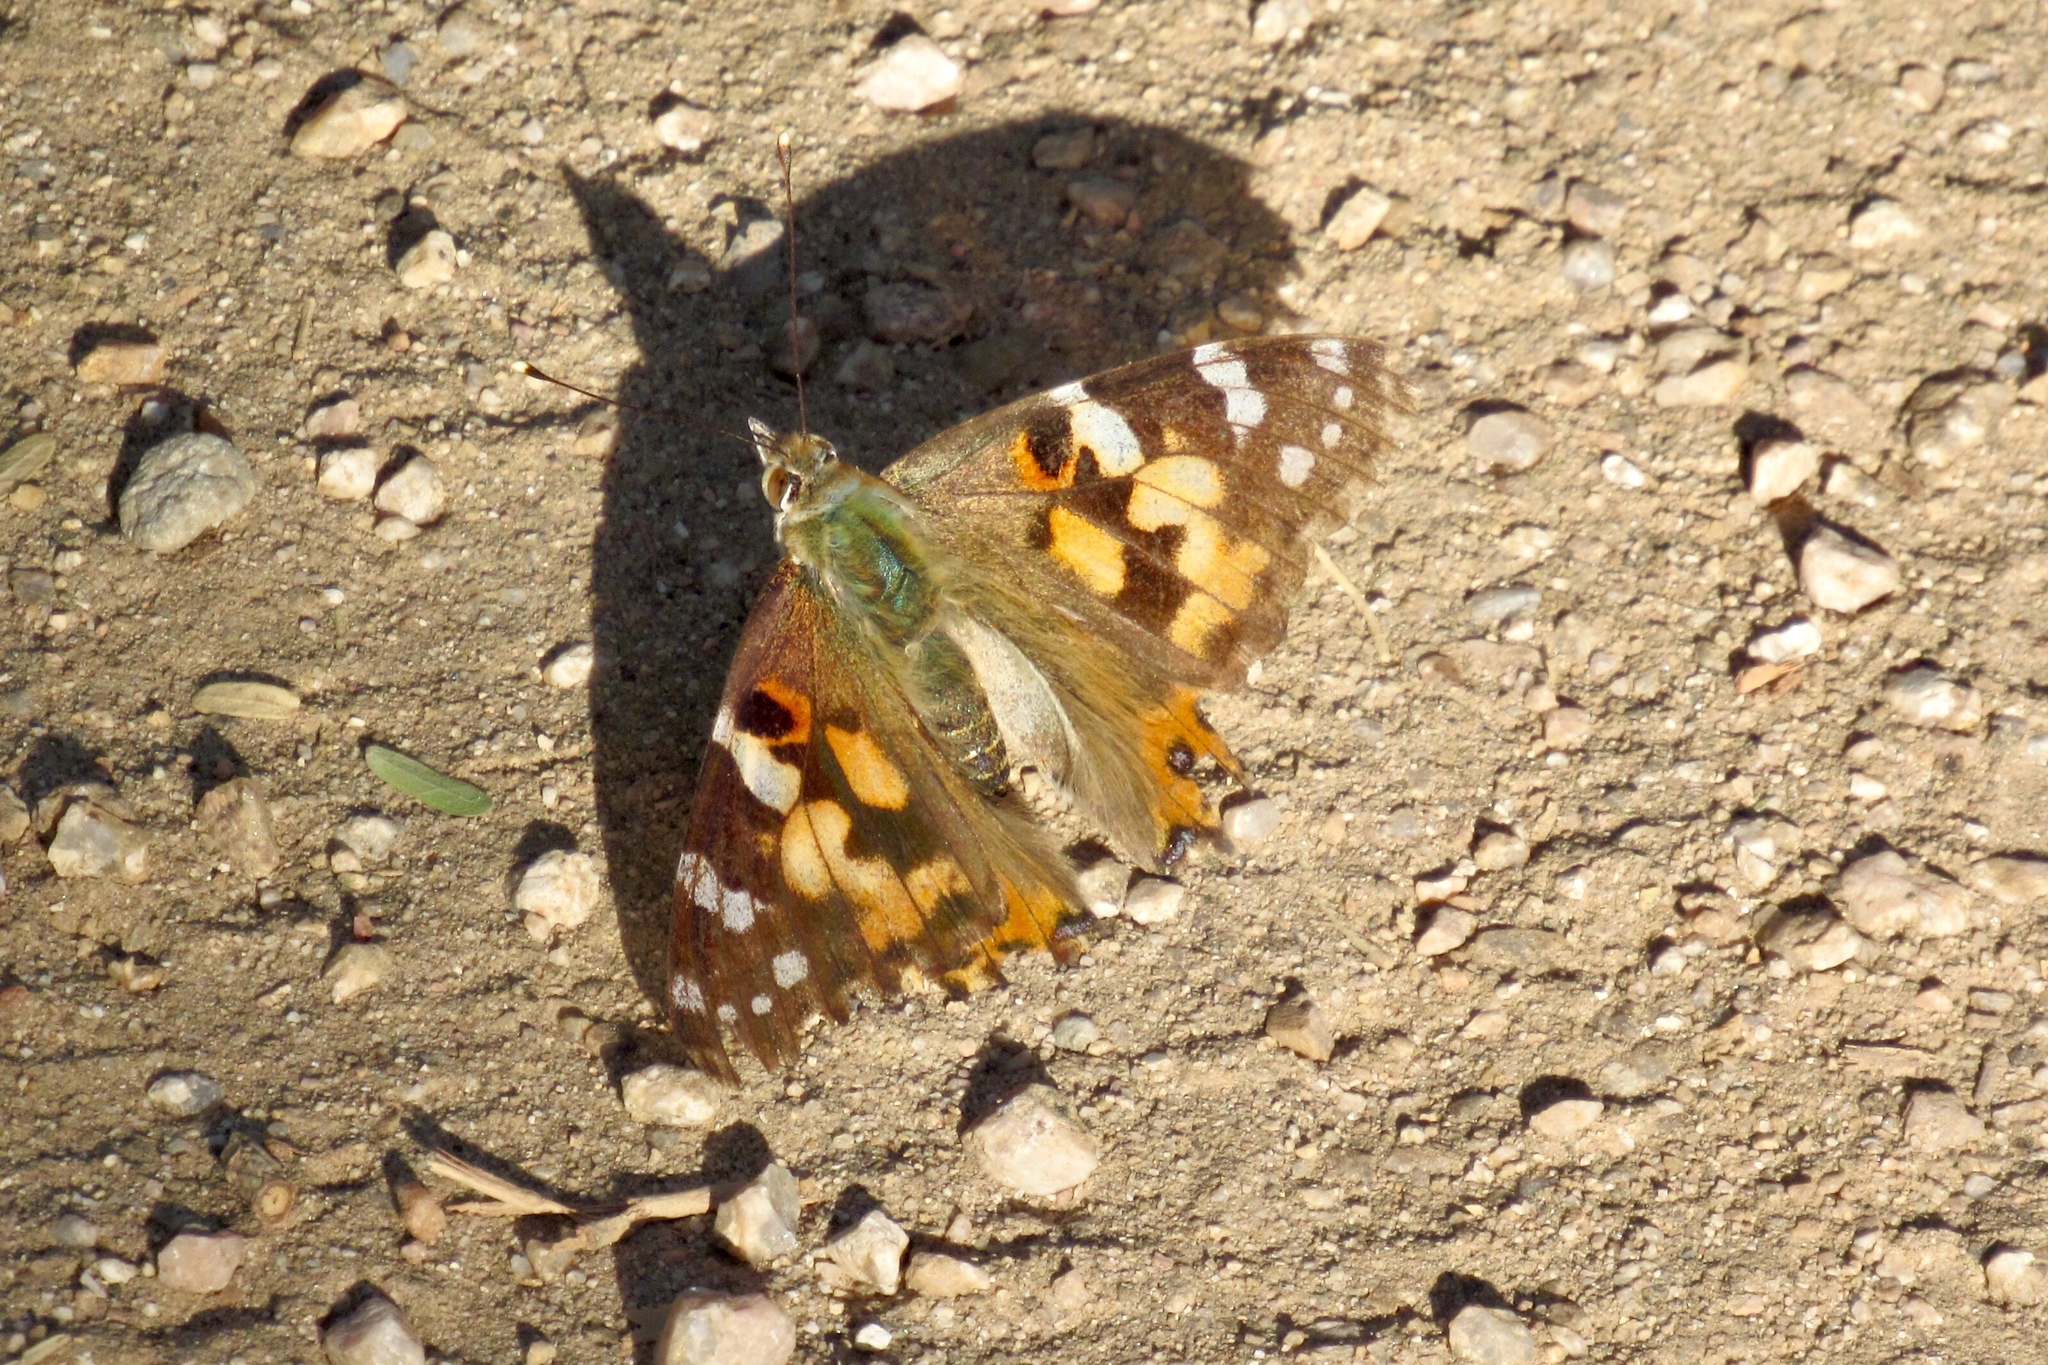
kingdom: Animalia
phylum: Arthropoda
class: Insecta
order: Lepidoptera
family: Nymphalidae
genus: Vanessa
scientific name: Vanessa cardui
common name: Painted lady
